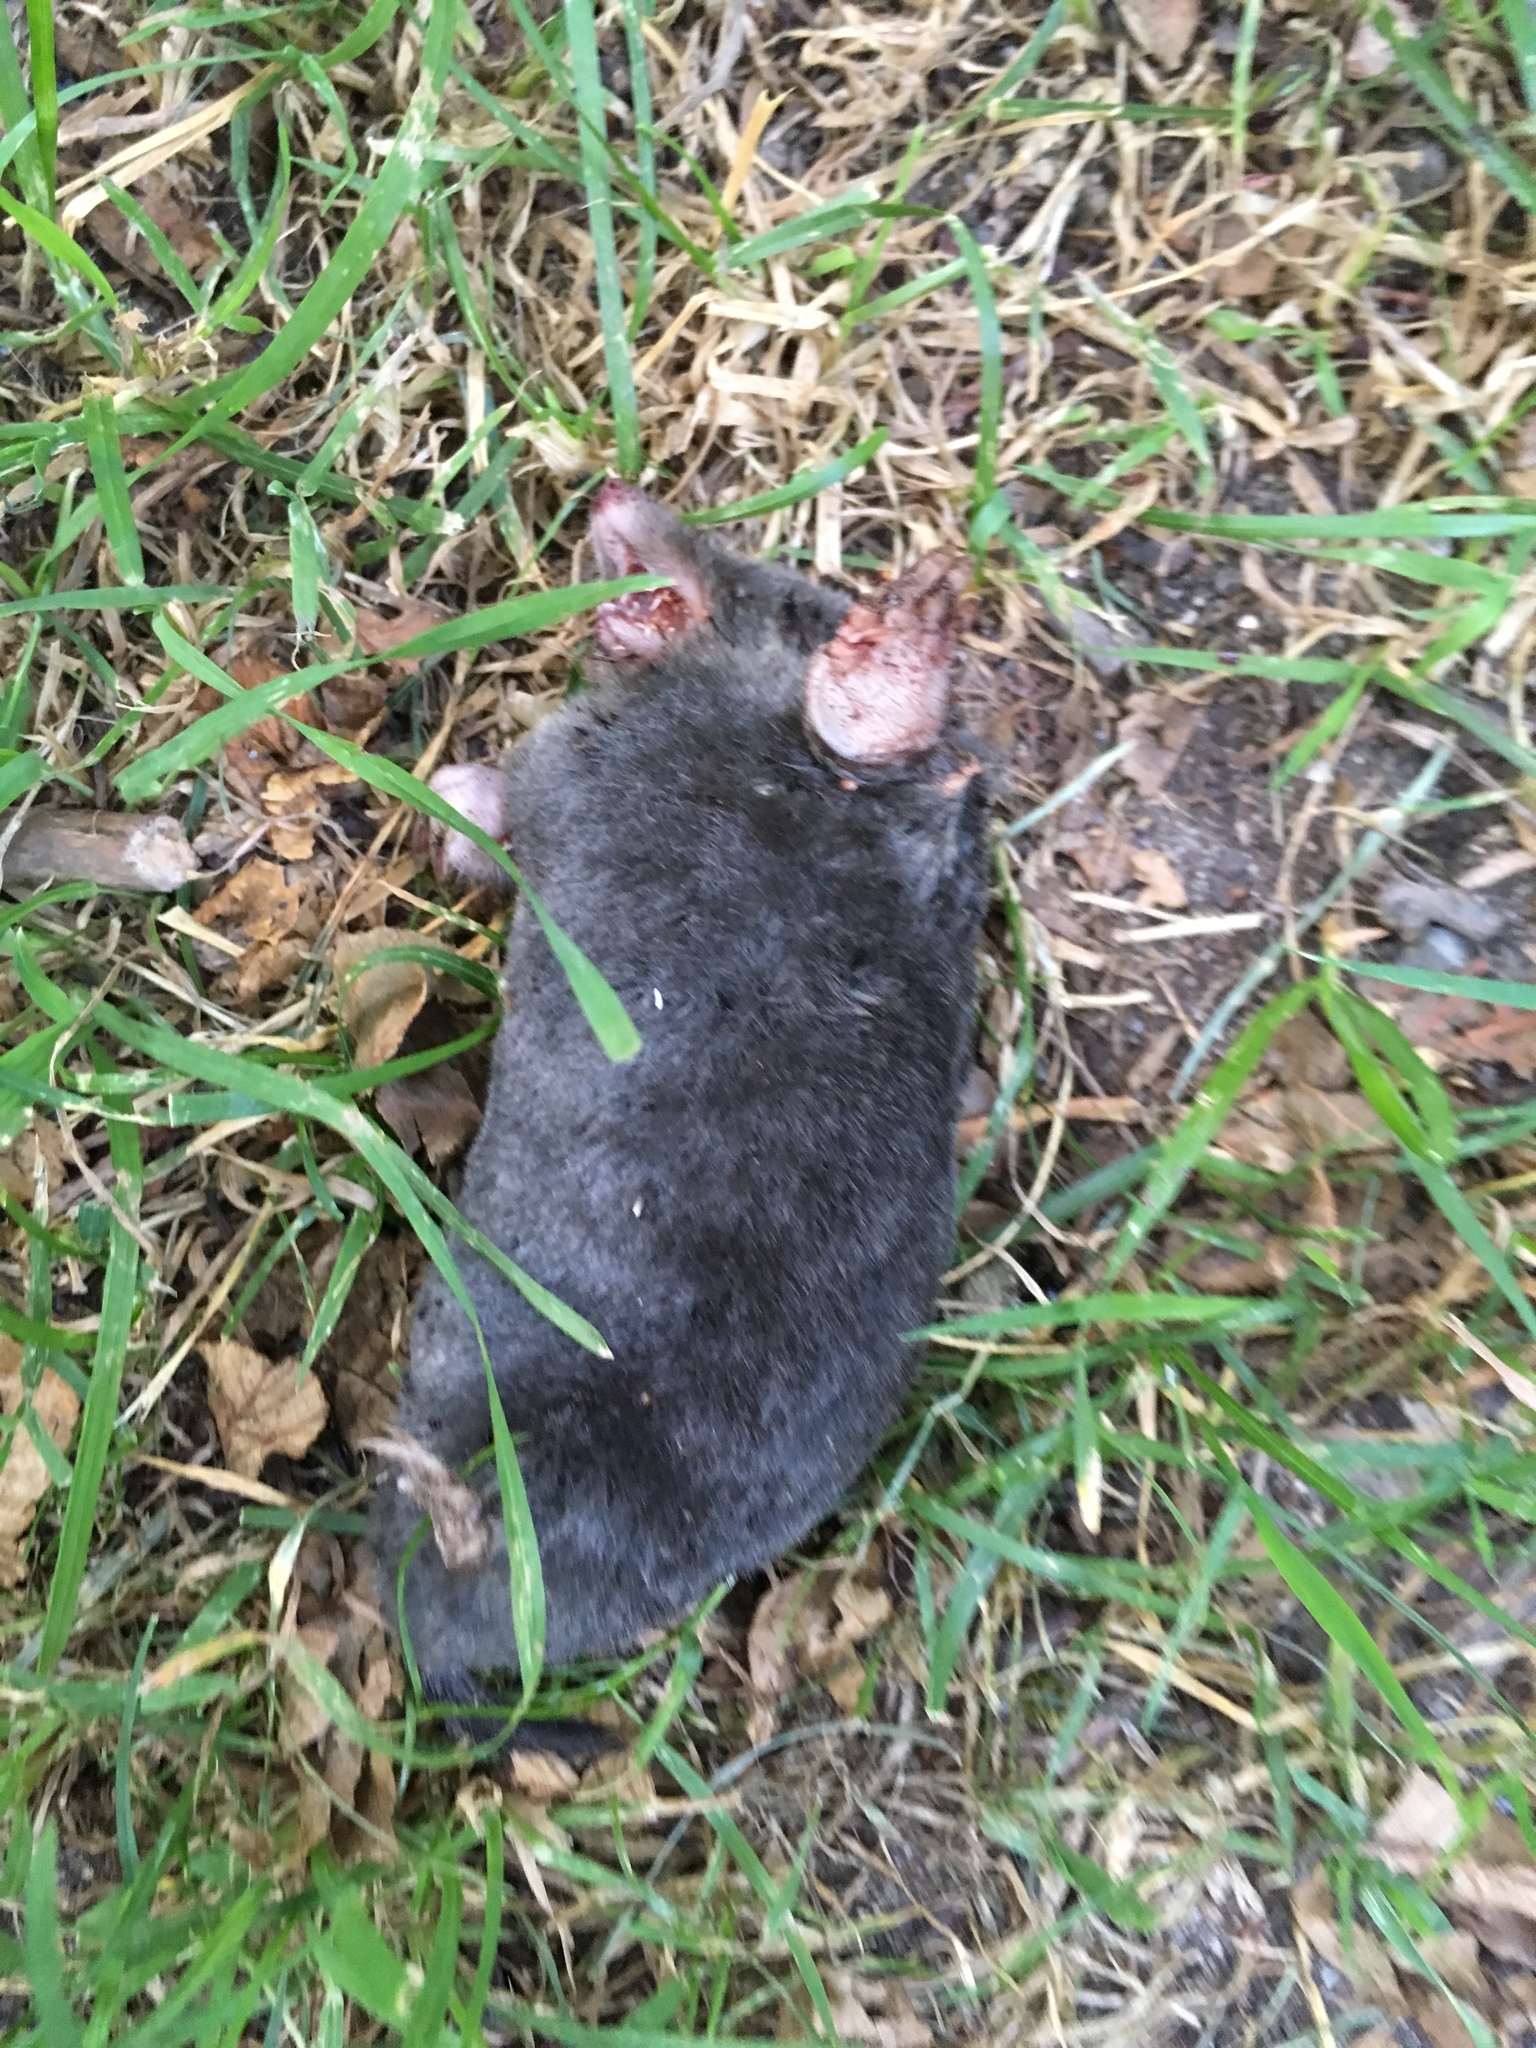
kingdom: Animalia
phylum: Chordata
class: Mammalia
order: Soricomorpha
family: Talpidae
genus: Talpa
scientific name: Talpa europaea
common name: European mole
